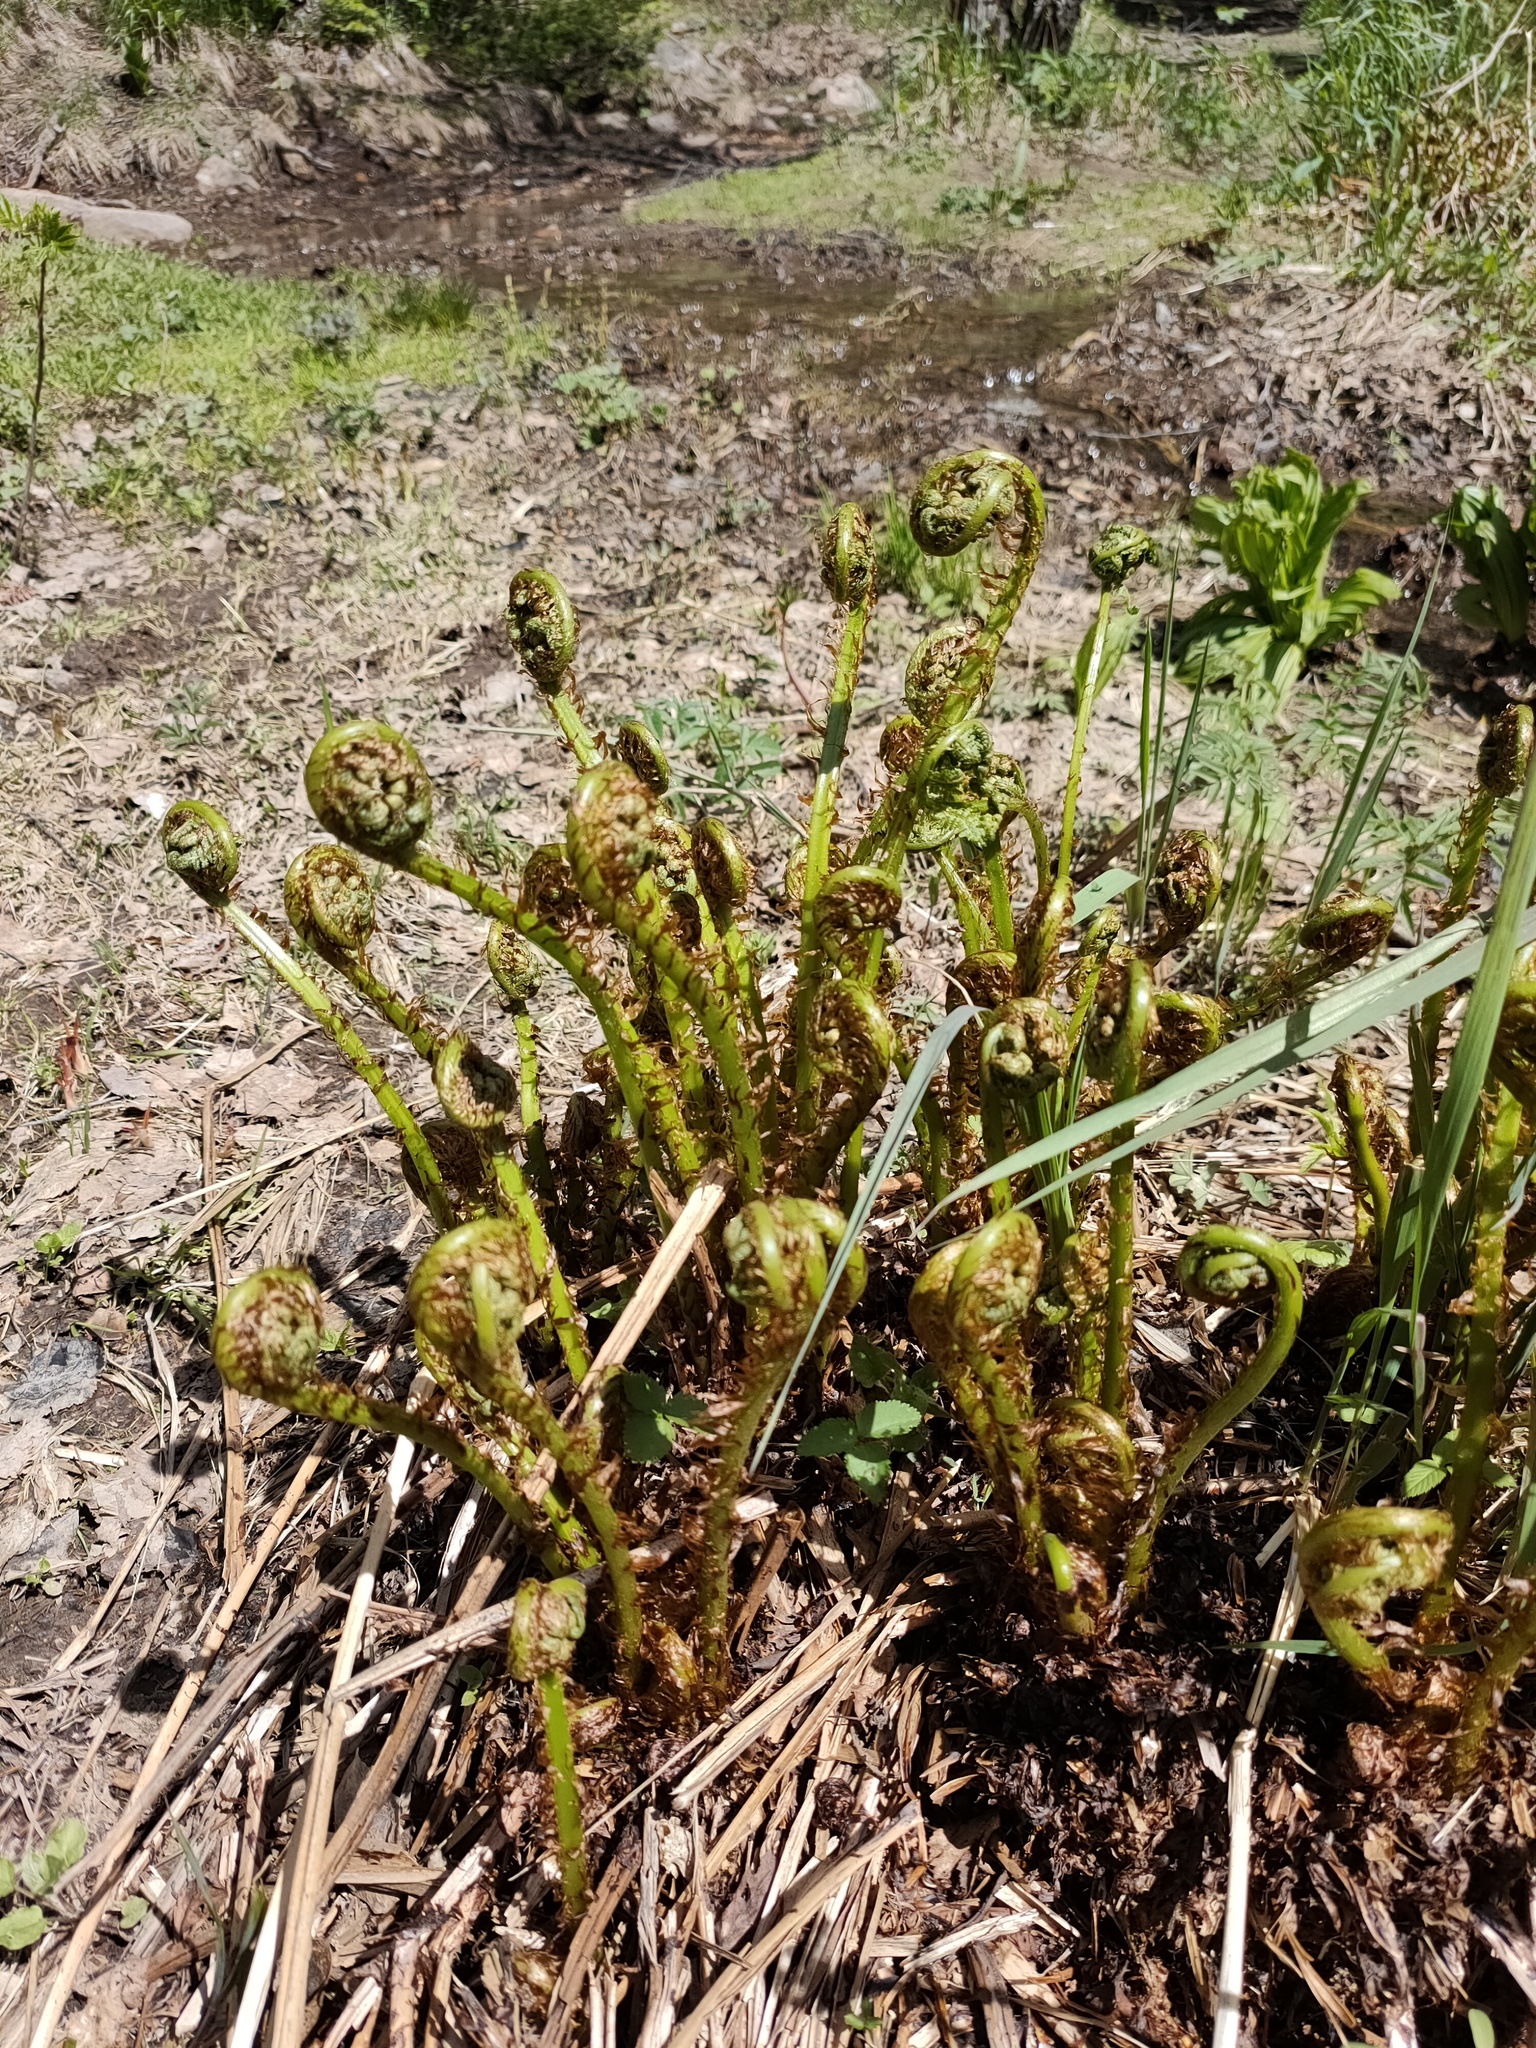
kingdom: Plantae
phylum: Tracheophyta
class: Polypodiopsida
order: Polypodiales
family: Athyriaceae
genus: Athyrium
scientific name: Athyrium filix-femina
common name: Lady fern
